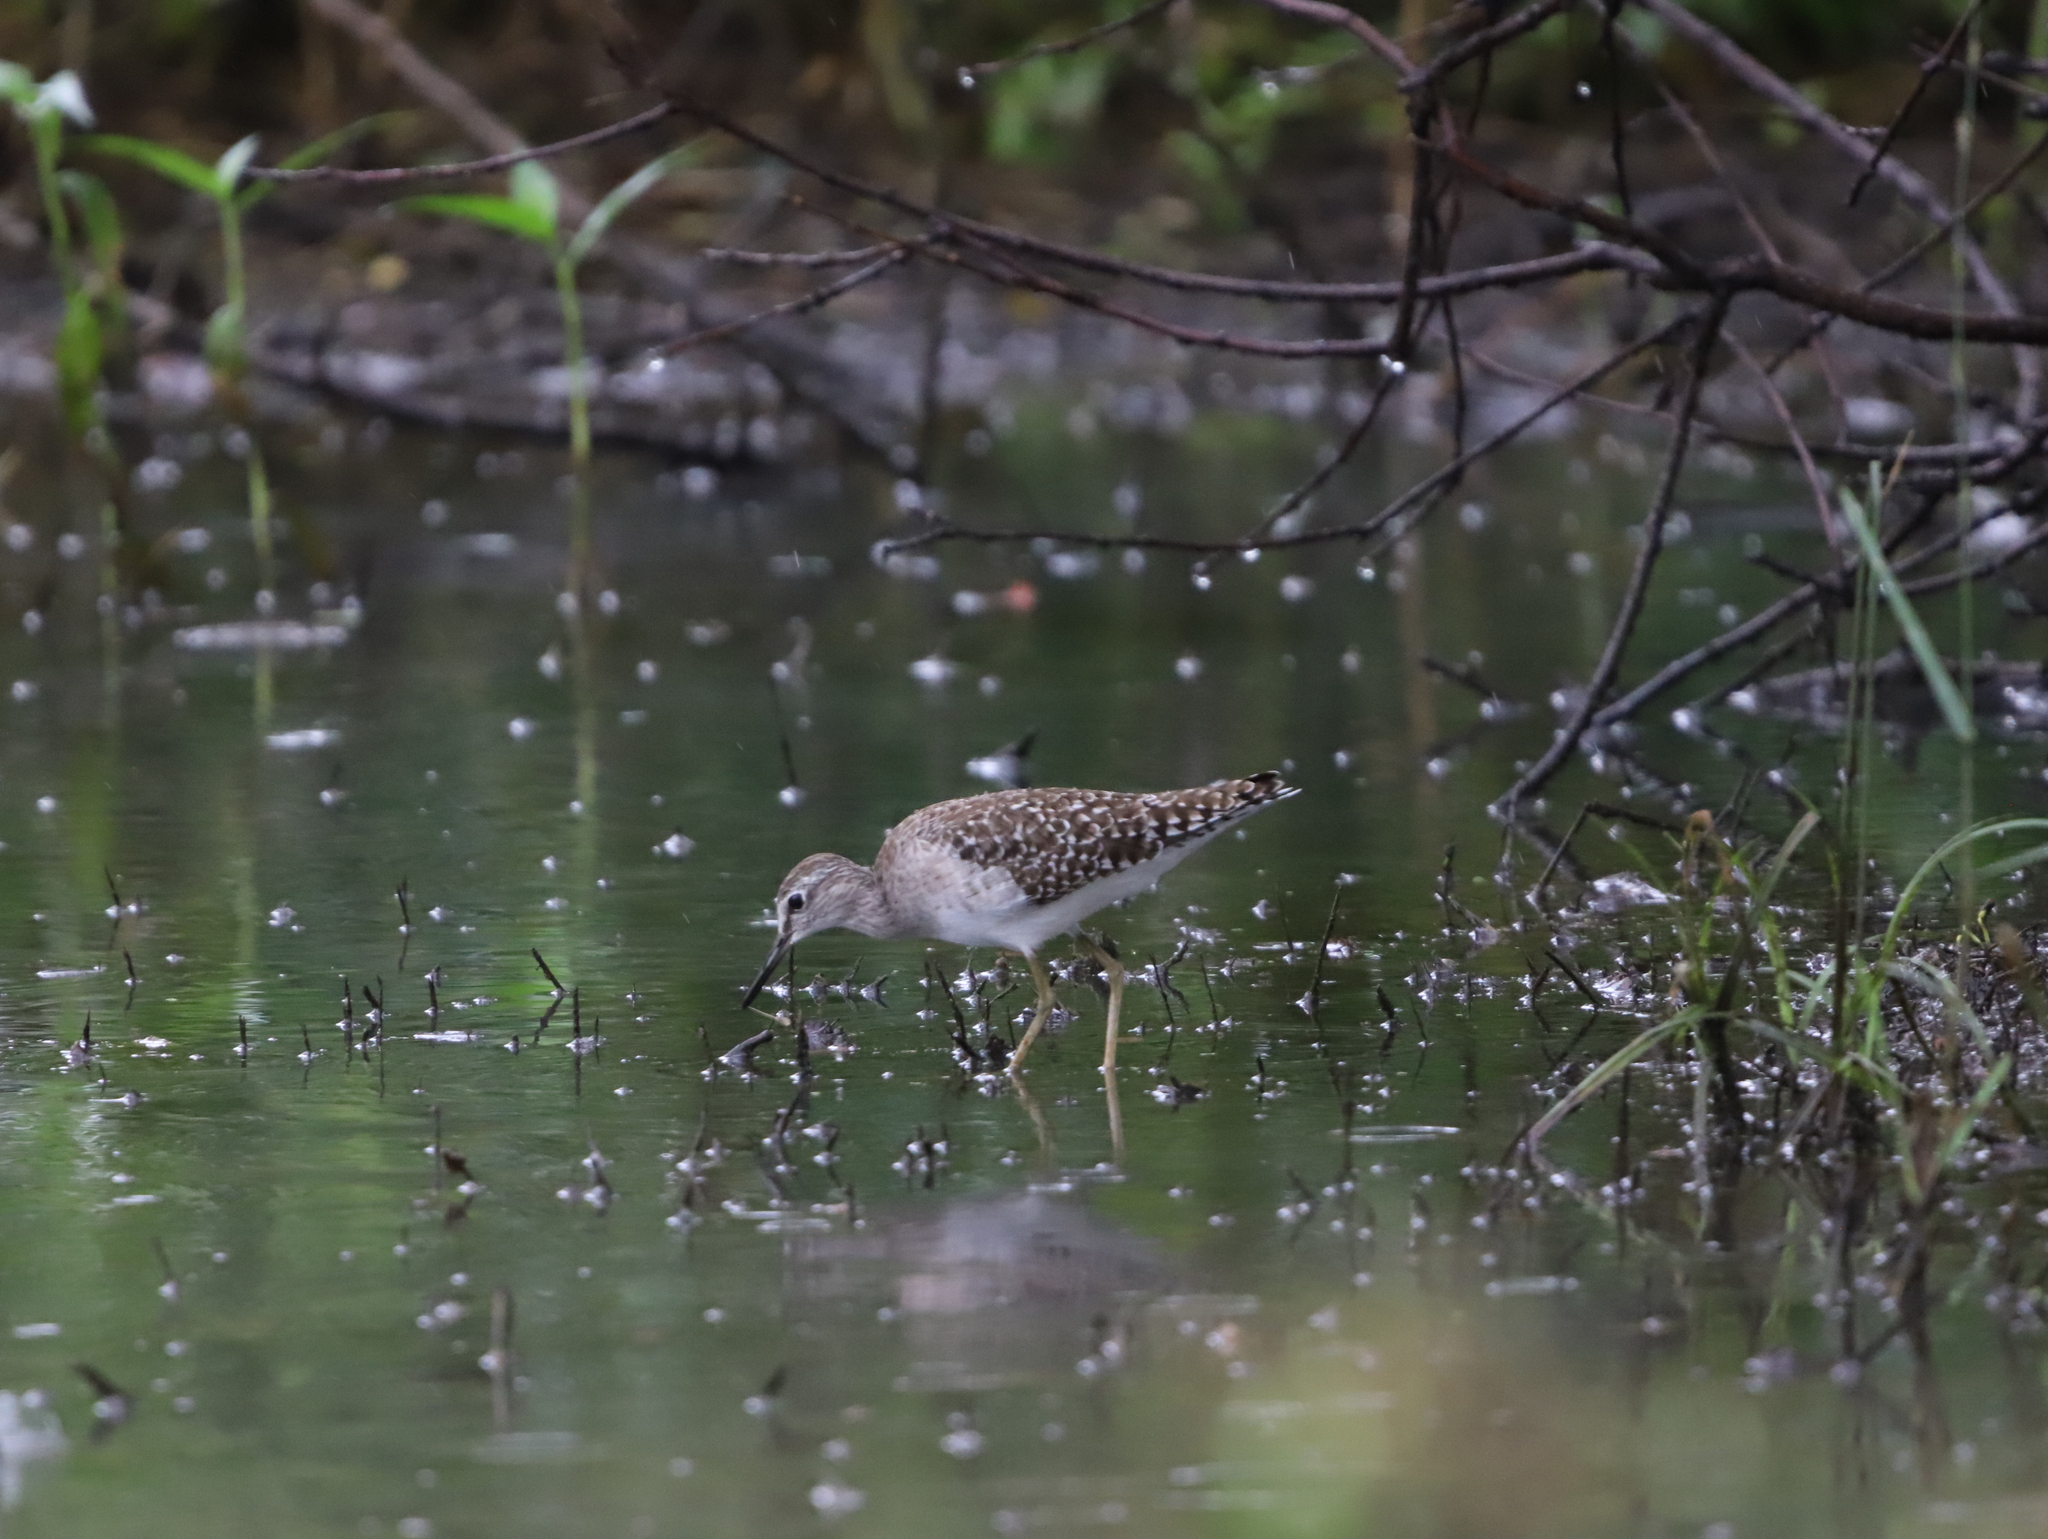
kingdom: Animalia
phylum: Chordata
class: Aves
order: Charadriiformes
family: Scolopacidae
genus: Tringa
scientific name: Tringa glareola
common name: Wood sandpiper
